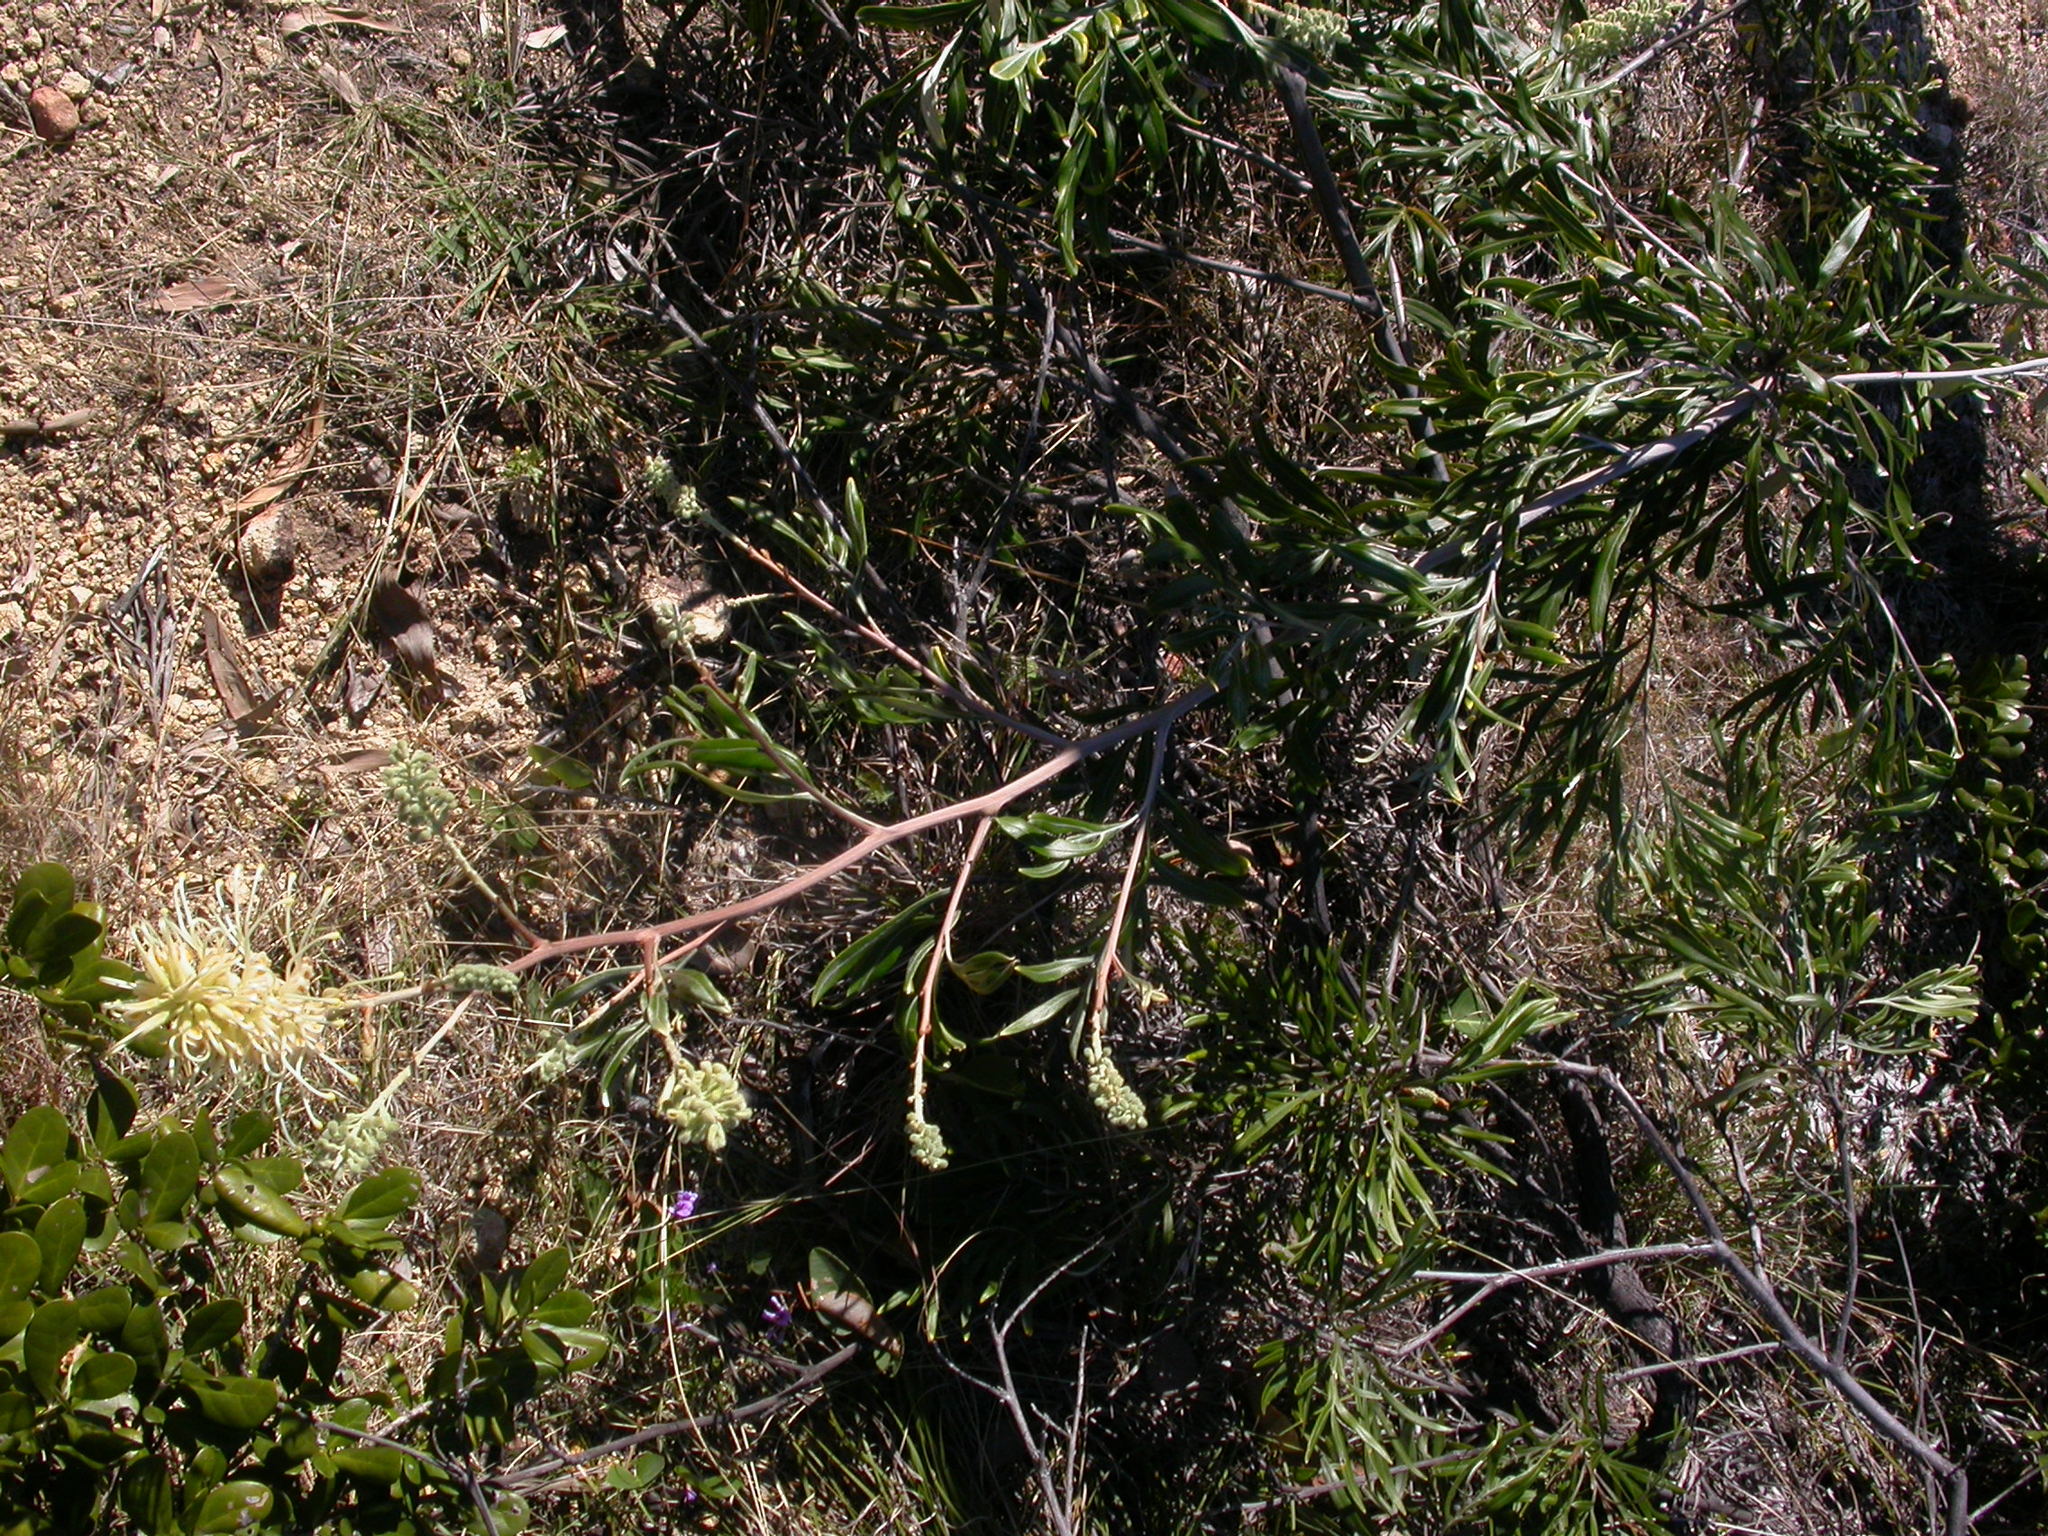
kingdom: Plantae
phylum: Tracheophyta
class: Magnoliopsida
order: Proteales
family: Proteaceae
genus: Grevillea
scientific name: Grevillea banksii
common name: Kahili flower
